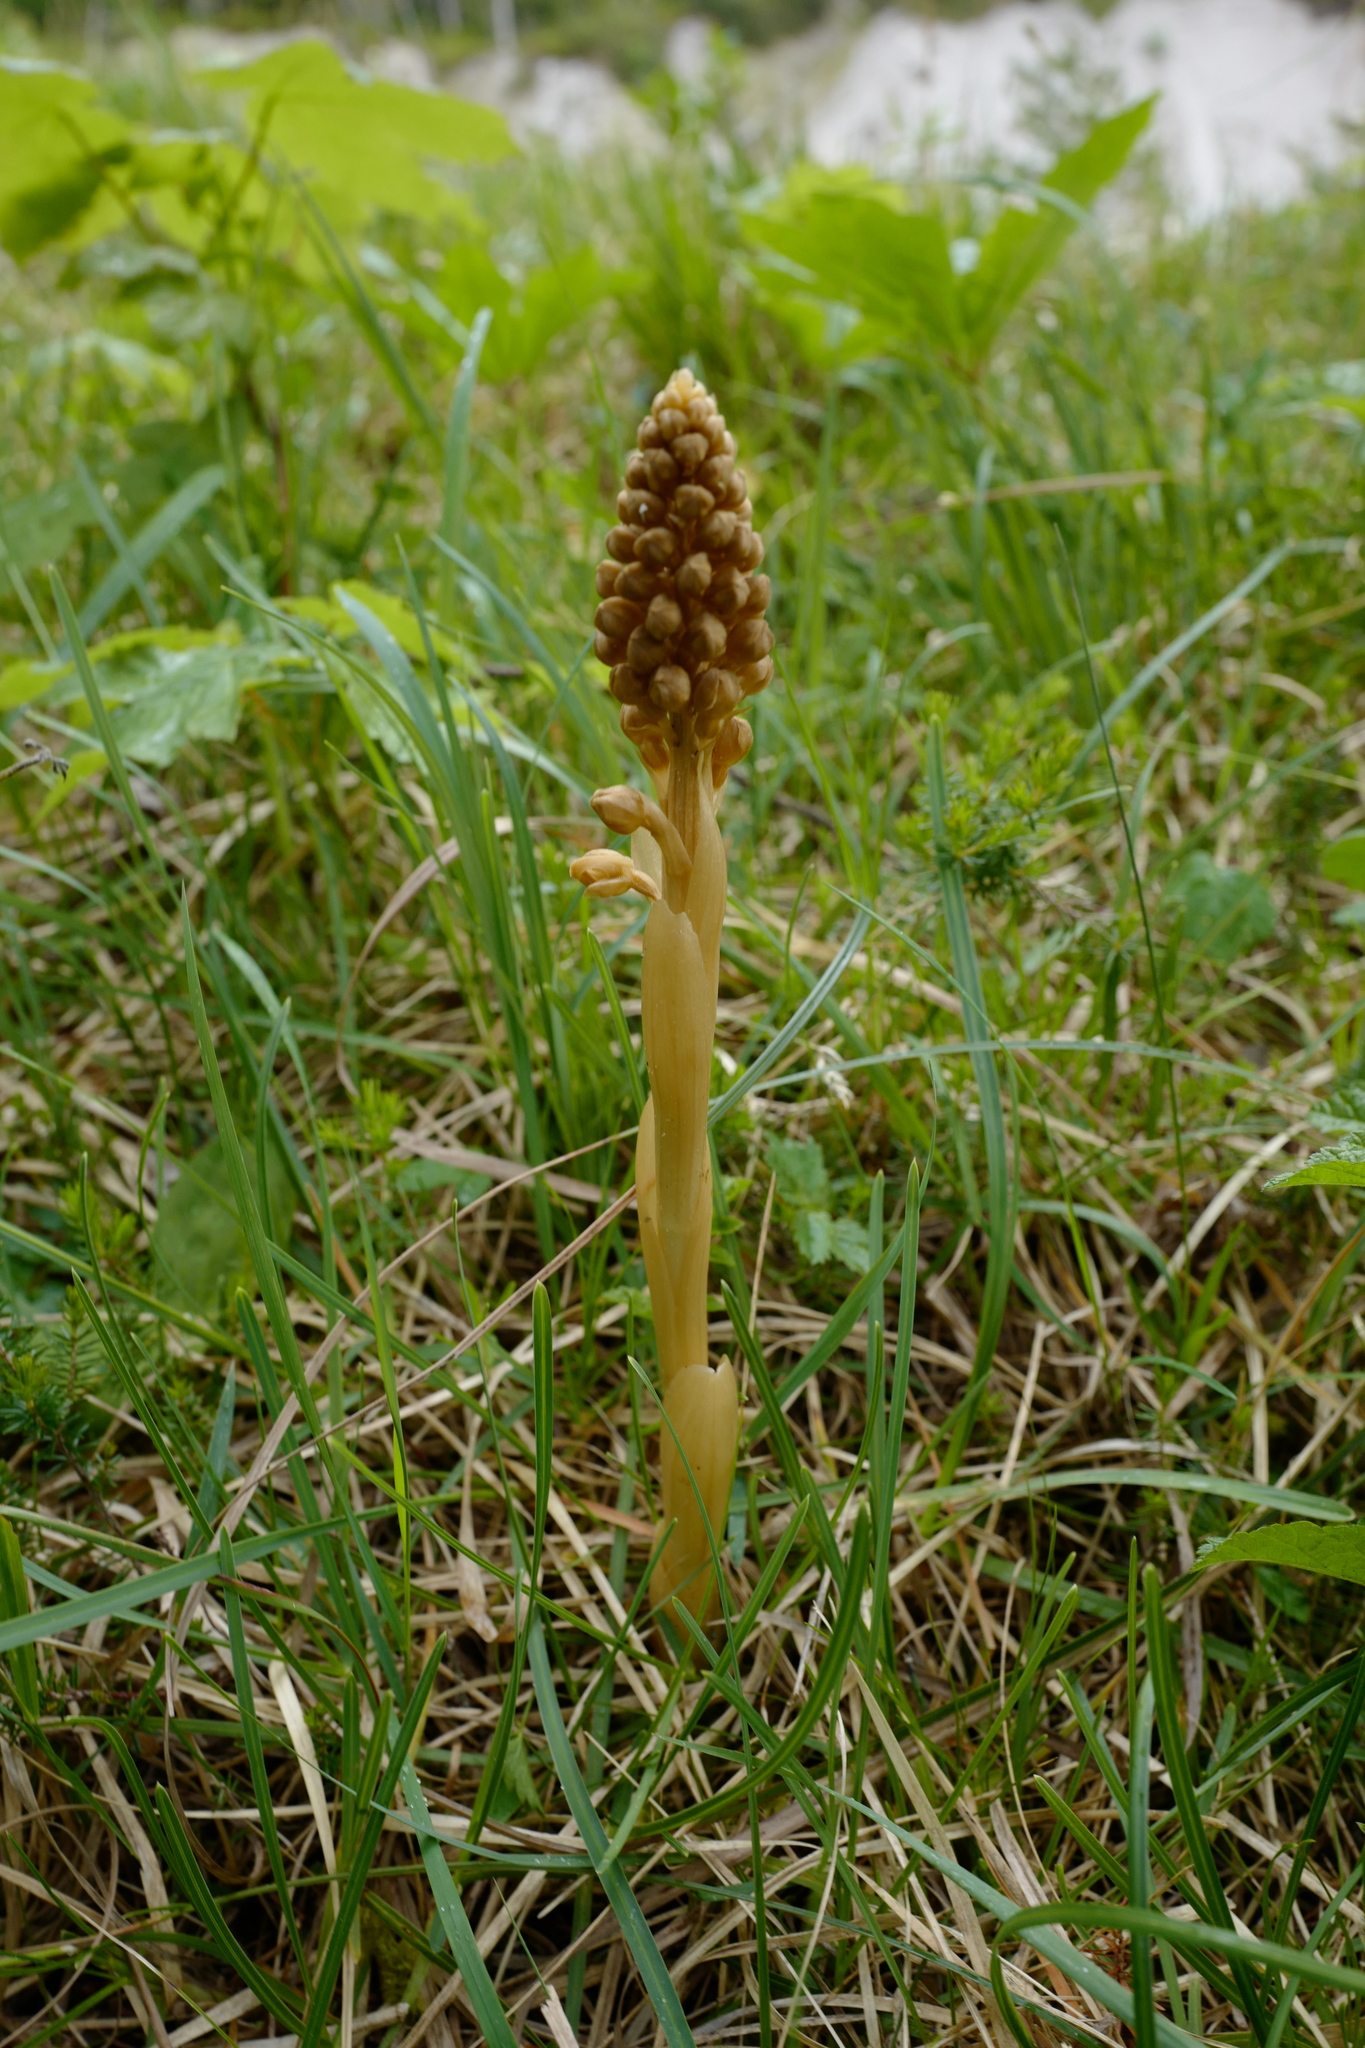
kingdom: Plantae
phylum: Tracheophyta
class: Liliopsida
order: Asparagales
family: Orchidaceae
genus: Neottia
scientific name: Neottia nidus-avis
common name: Bird's-nest orchid
